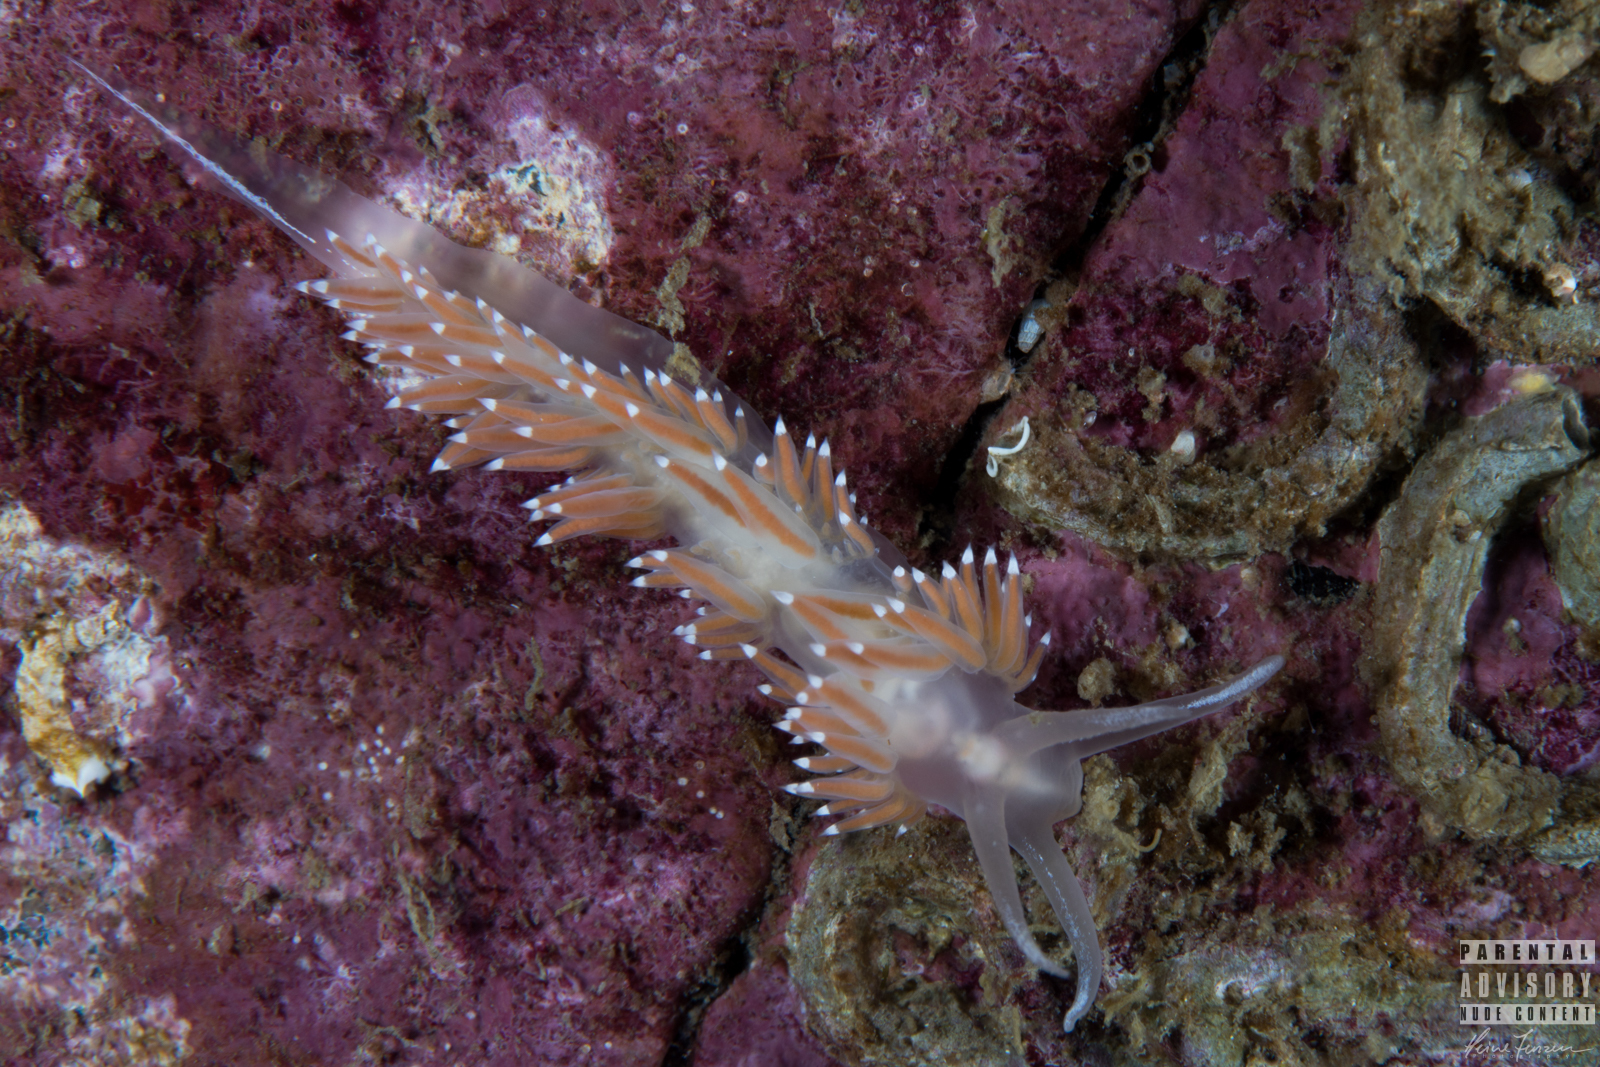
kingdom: Animalia
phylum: Mollusca
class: Gastropoda
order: Nudibranchia
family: Coryphellidae
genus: Coryphella
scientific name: Coryphella verrucosa
